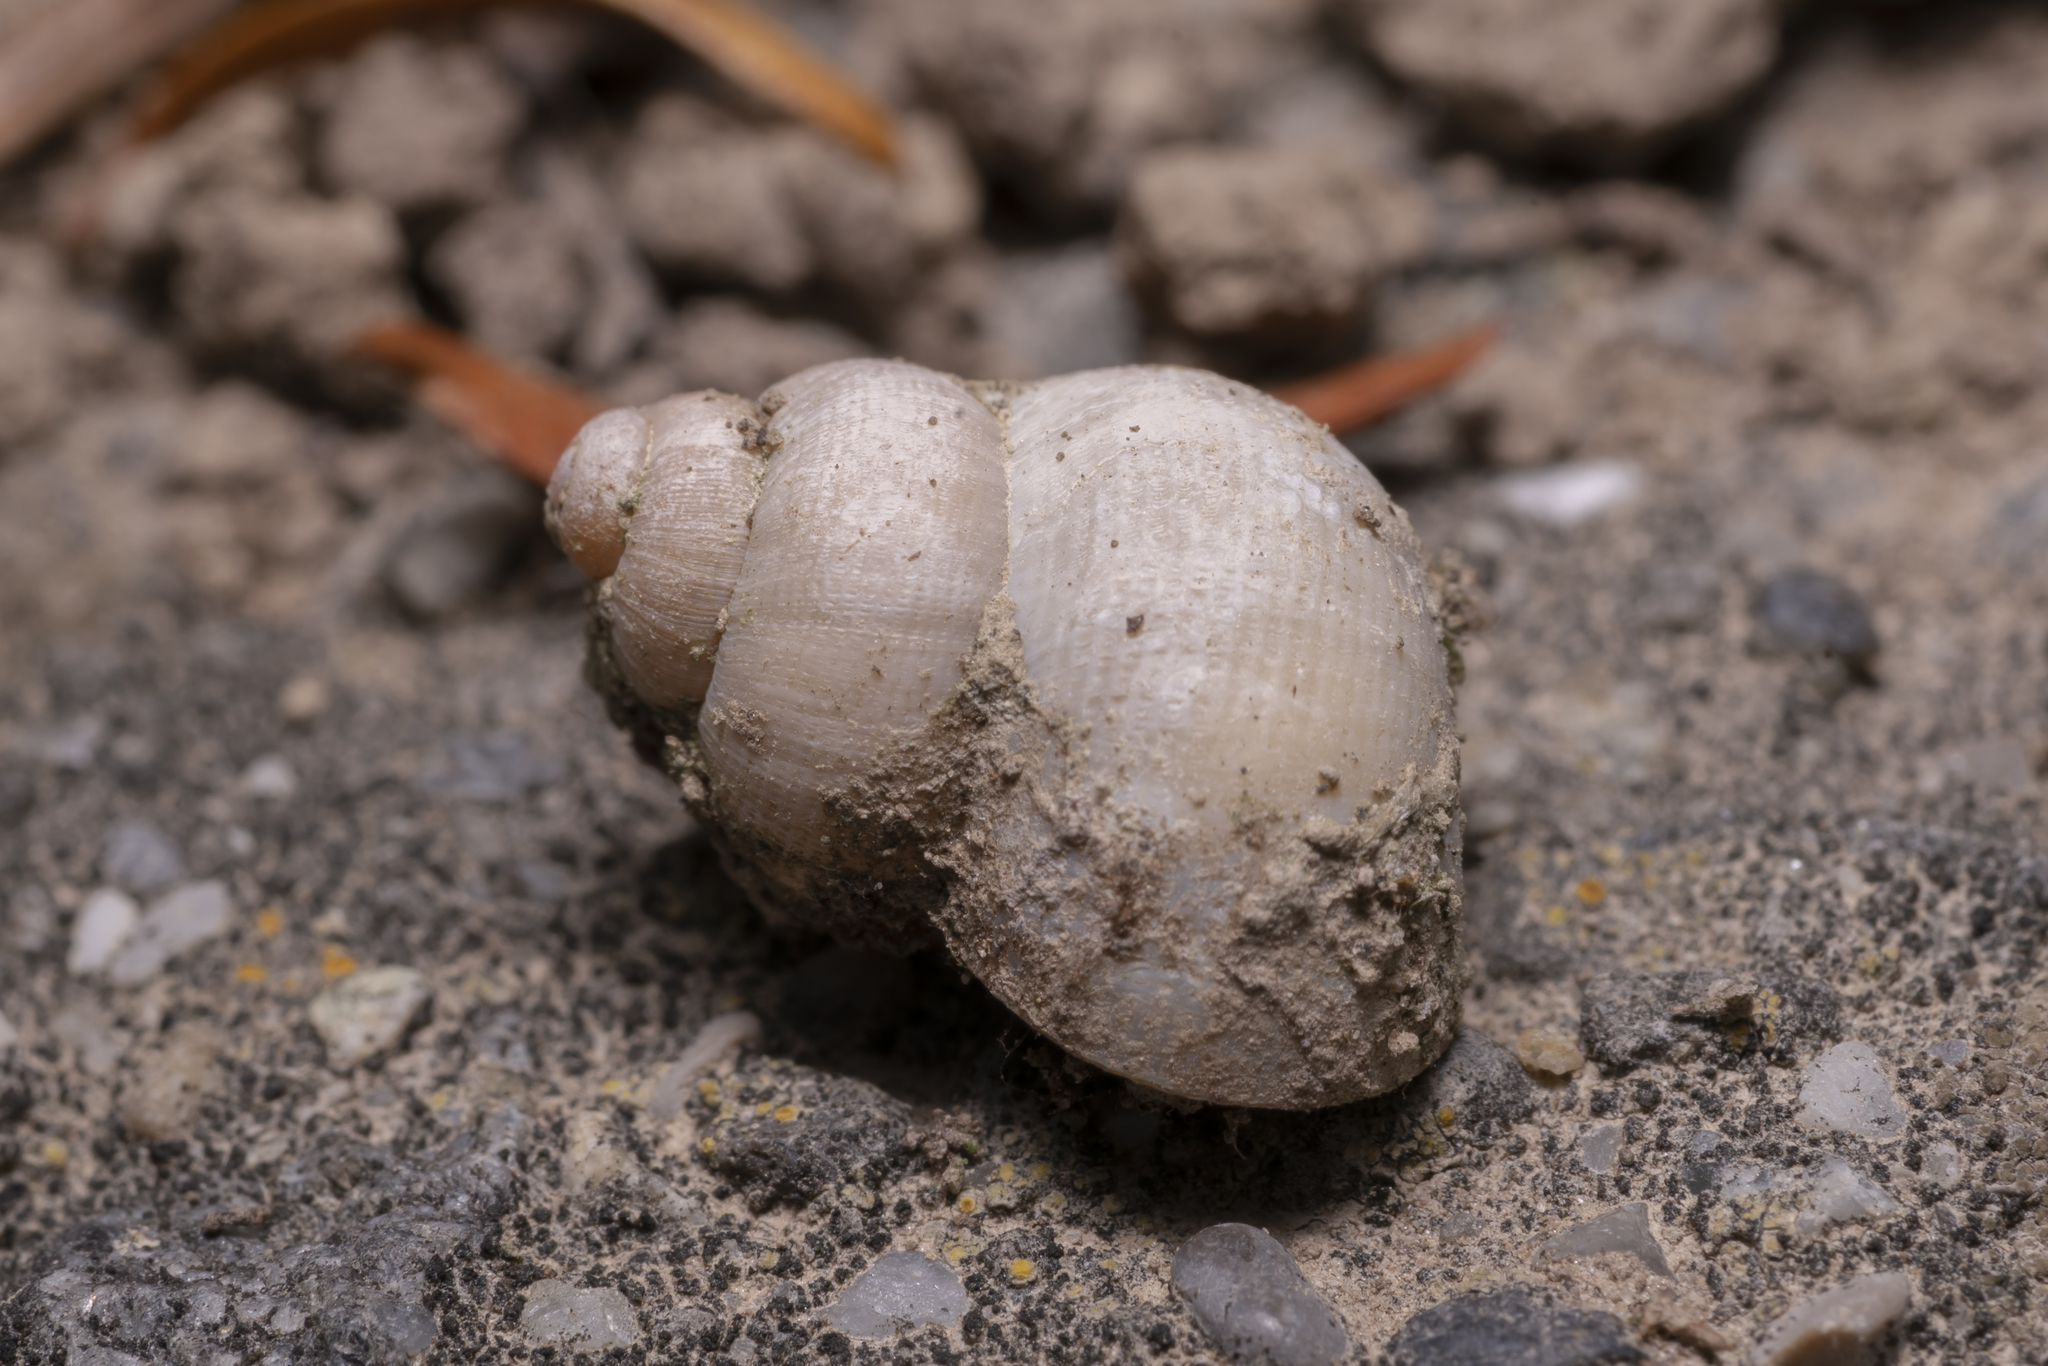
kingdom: Animalia
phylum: Mollusca
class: Gastropoda
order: Littorinimorpha
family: Pomatiidae
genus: Pomatias
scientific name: Pomatias elegans
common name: Red-mouthed snail
